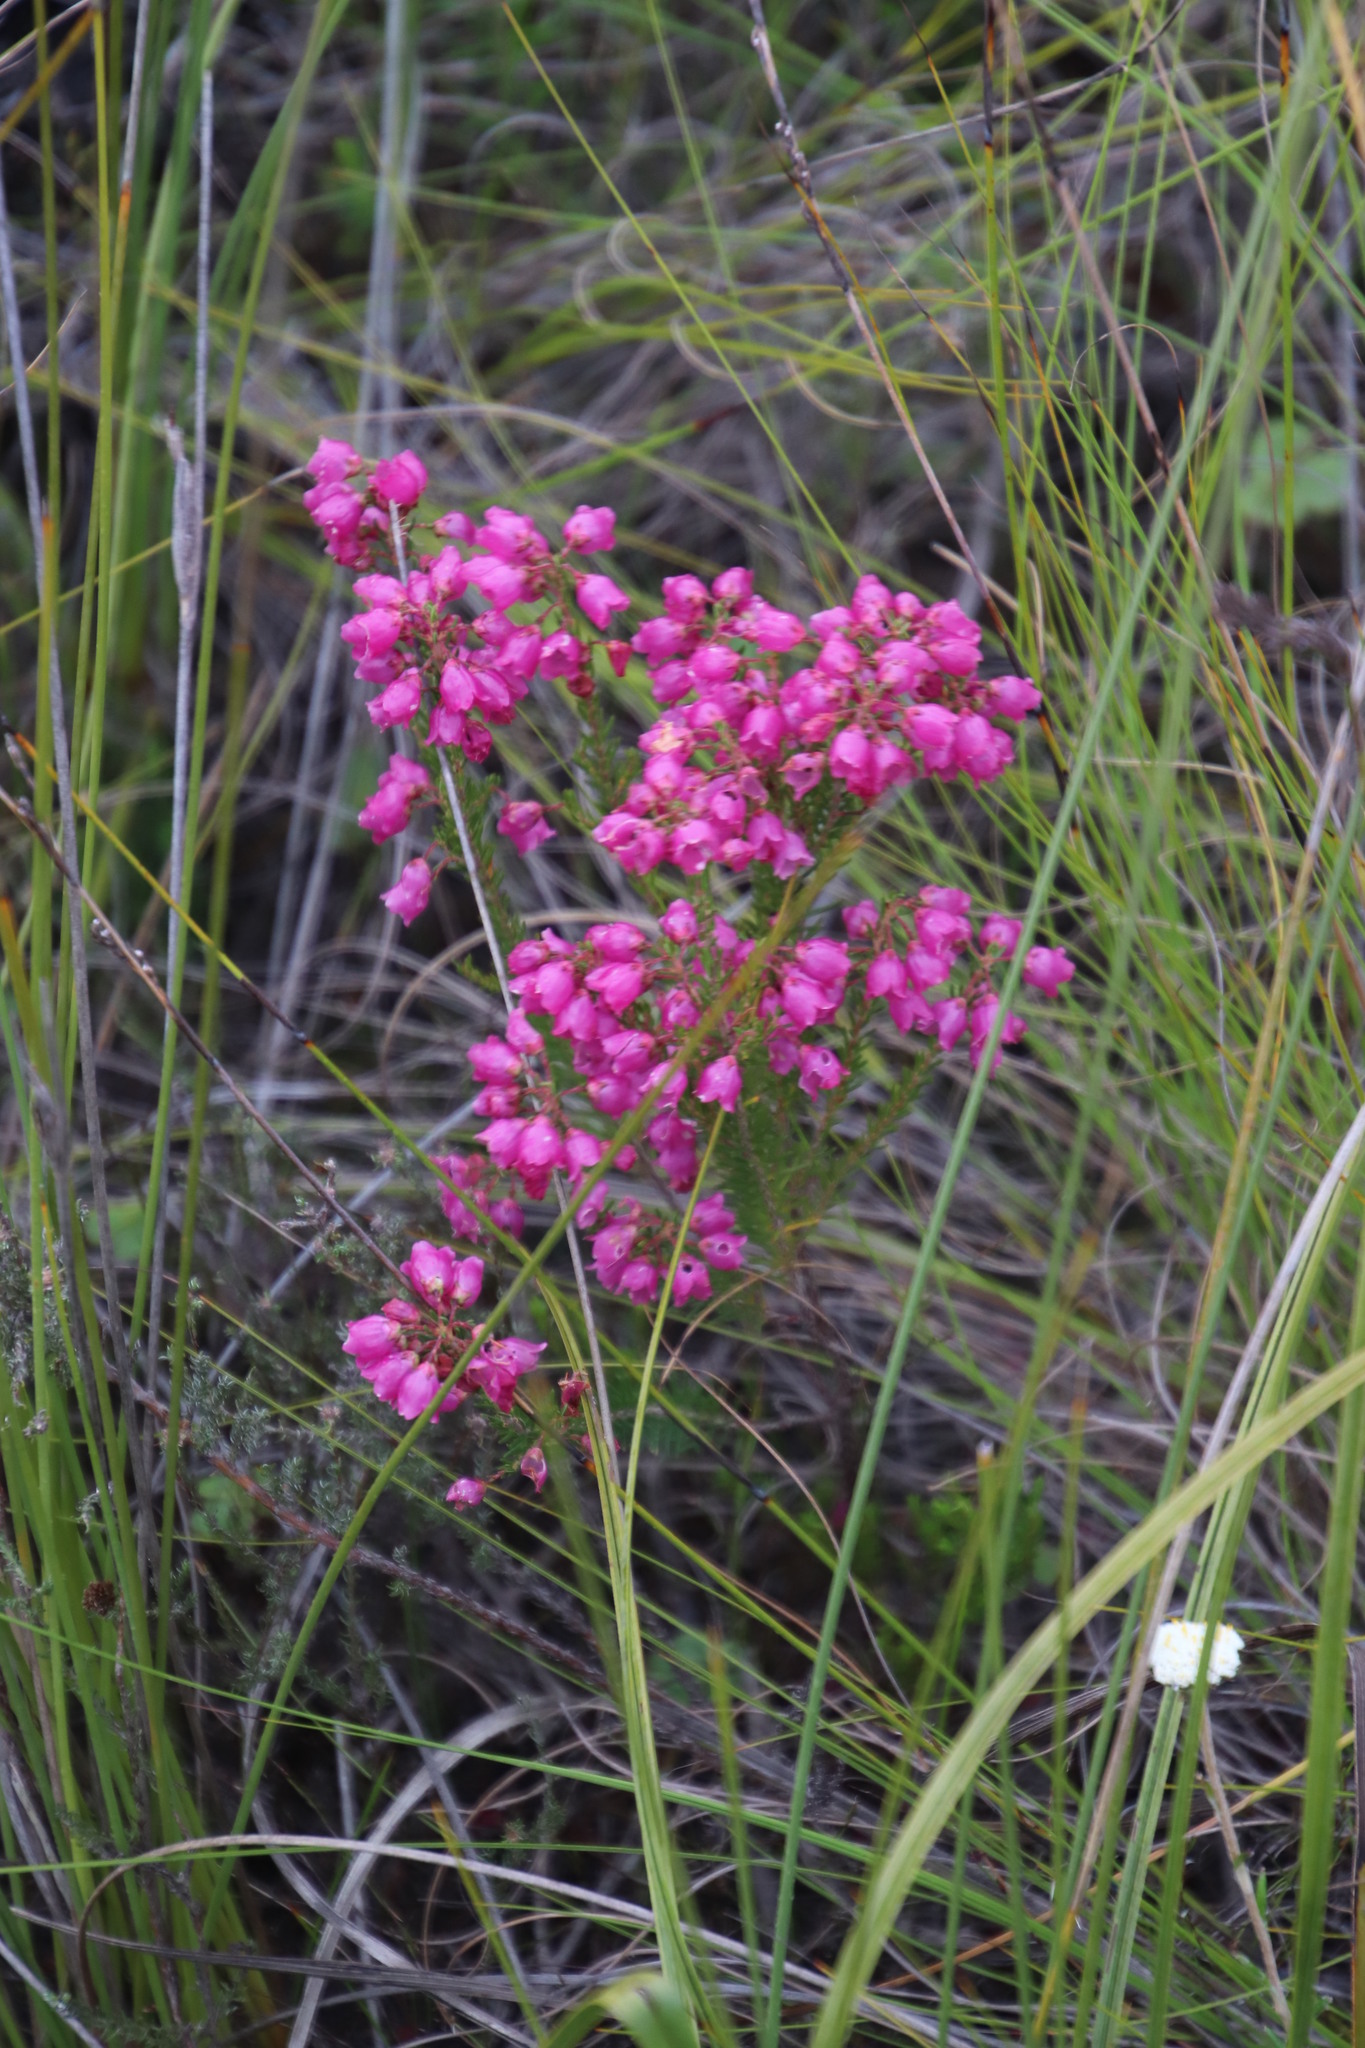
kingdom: Plantae
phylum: Tracheophyta
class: Magnoliopsida
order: Ericales
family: Ericaceae
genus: Erica
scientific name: Erica axilliflora
